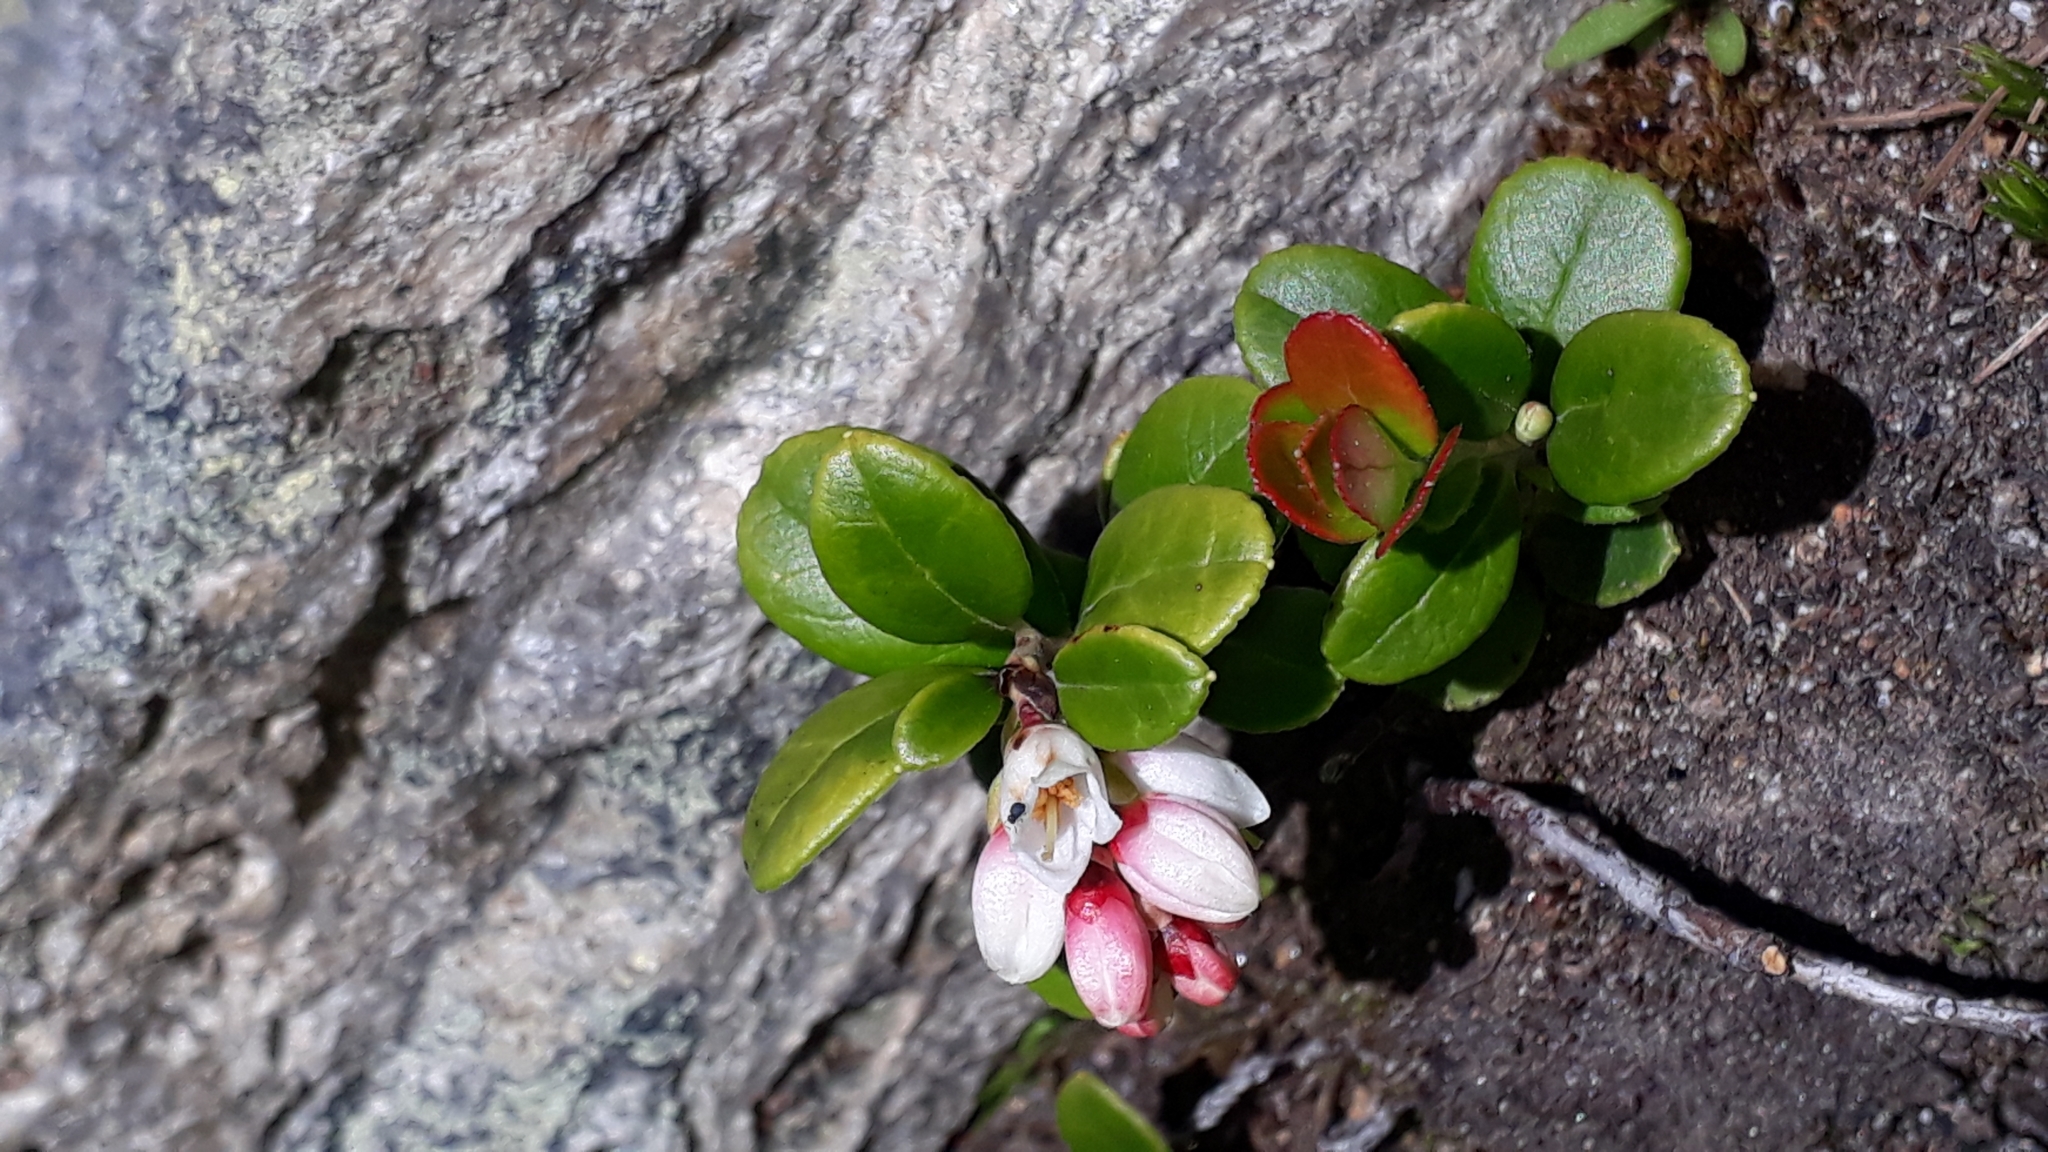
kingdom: Plantae
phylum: Tracheophyta
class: Magnoliopsida
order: Ericales
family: Ericaceae
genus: Vaccinium
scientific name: Vaccinium vitis-idaea
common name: Cowberry
